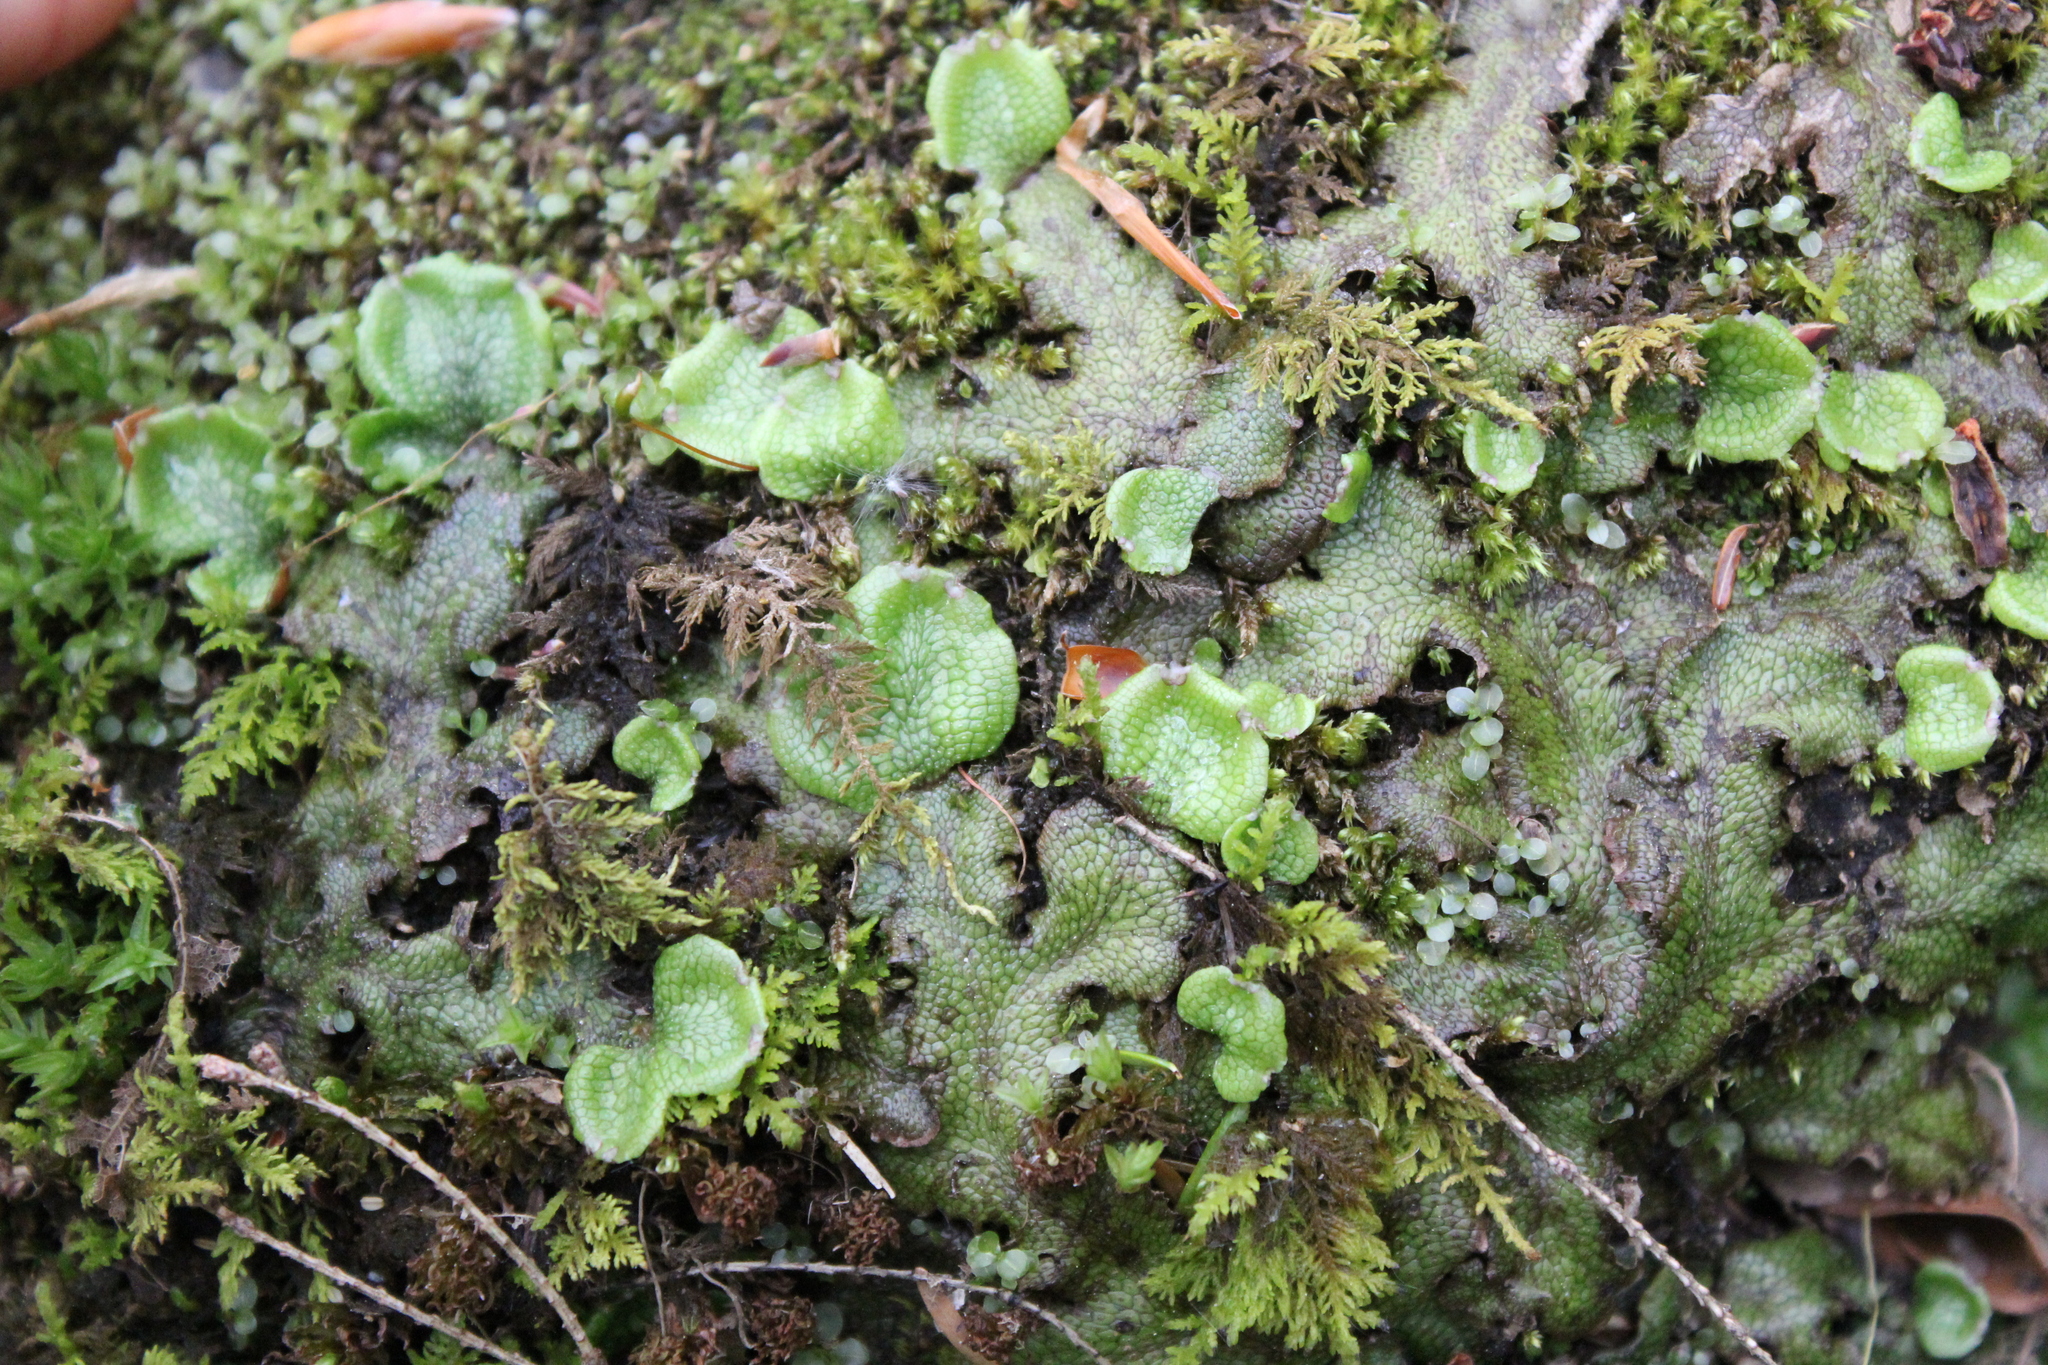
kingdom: Plantae
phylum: Marchantiophyta
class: Marchantiopsida
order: Marchantiales
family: Conocephalaceae
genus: Conocephalum
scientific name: Conocephalum salebrosum
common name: Cat-tongue liverwort
